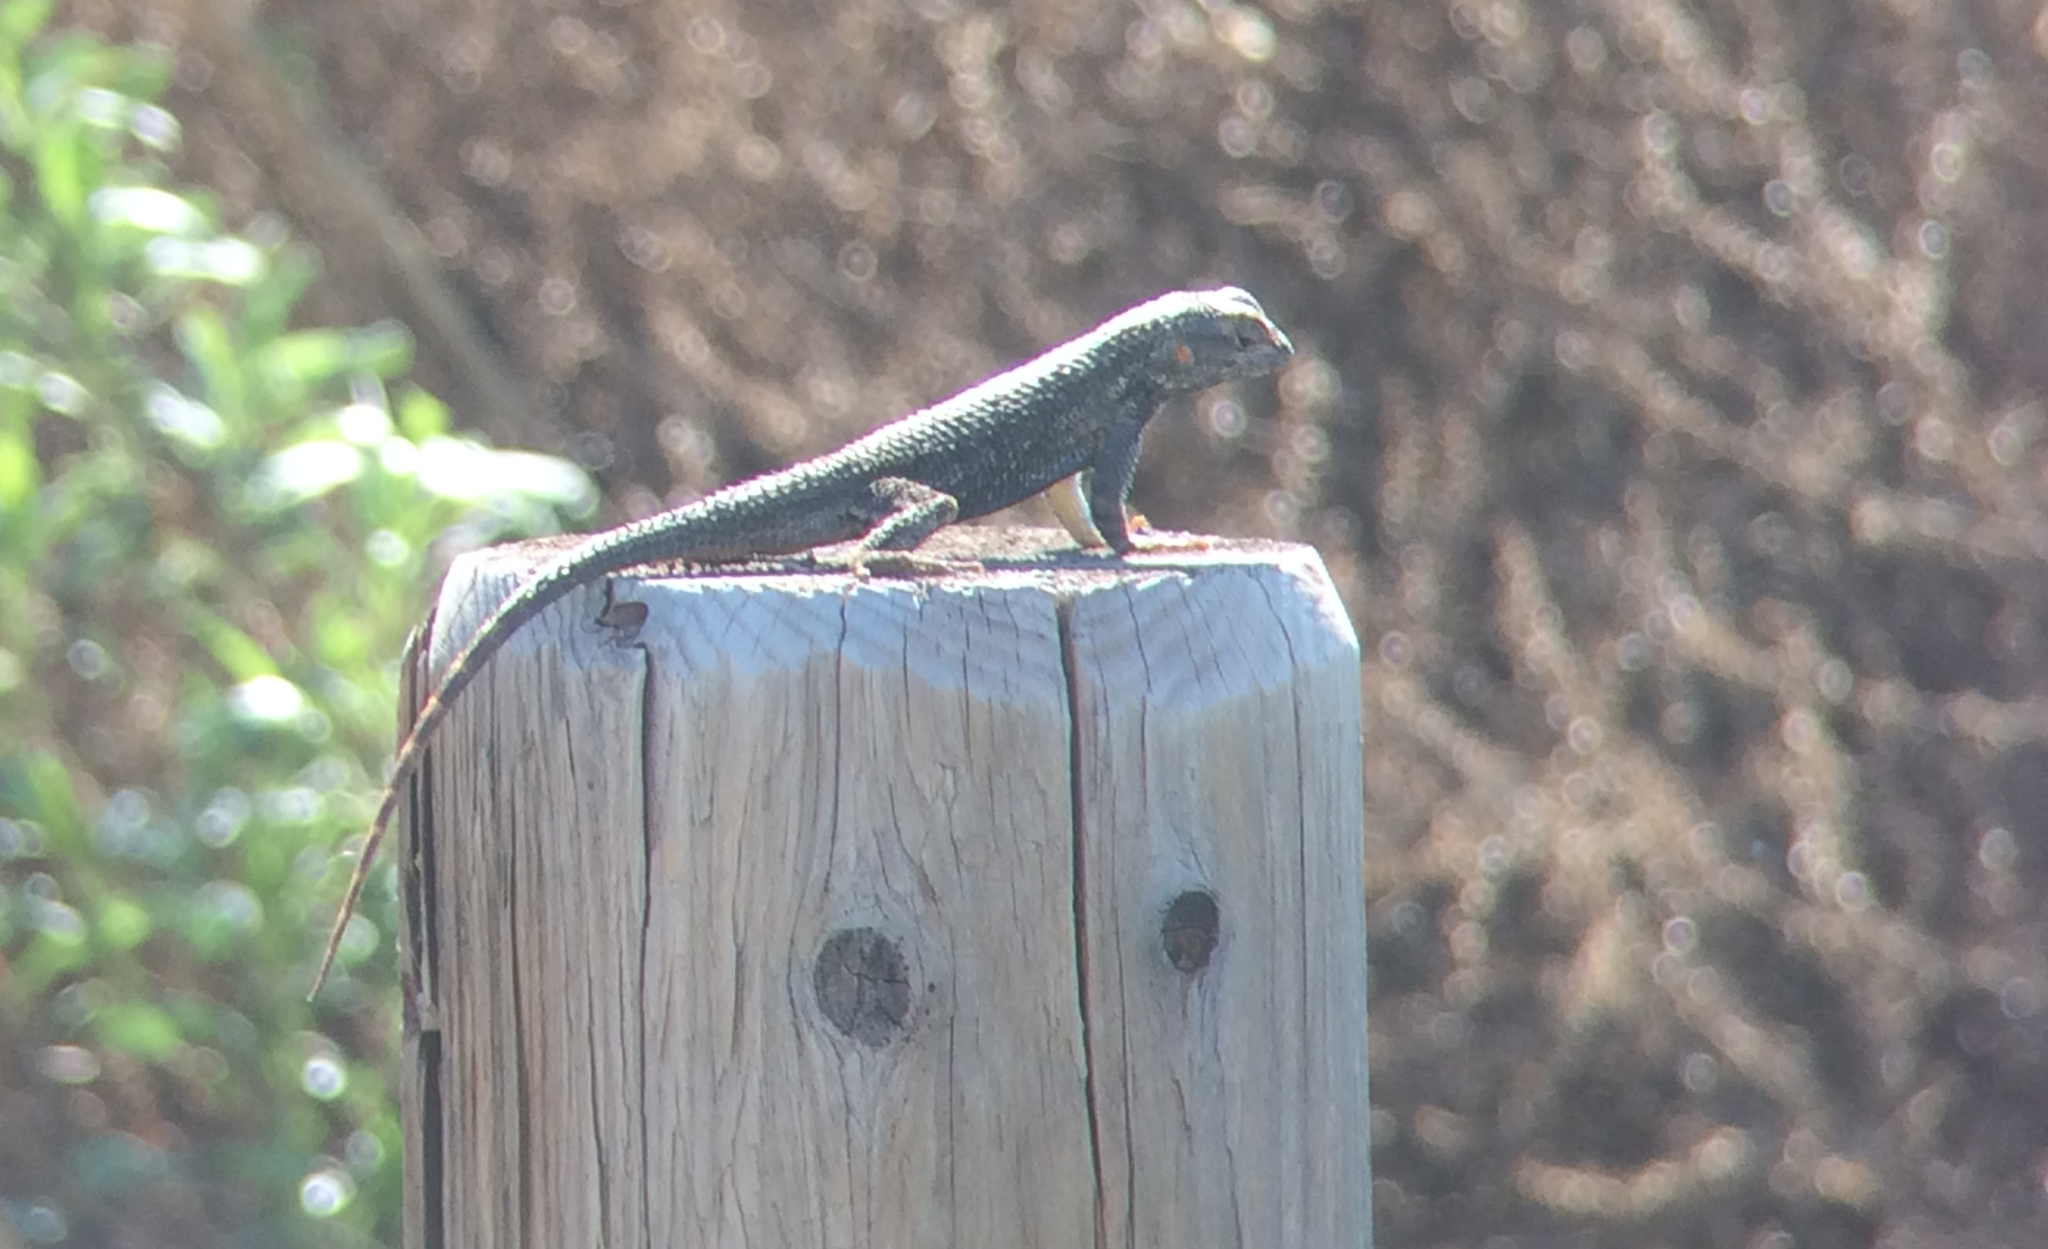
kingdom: Animalia
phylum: Chordata
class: Squamata
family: Phrynosomatidae
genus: Sceloporus
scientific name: Sceloporus occidentalis
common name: Western fence lizard
